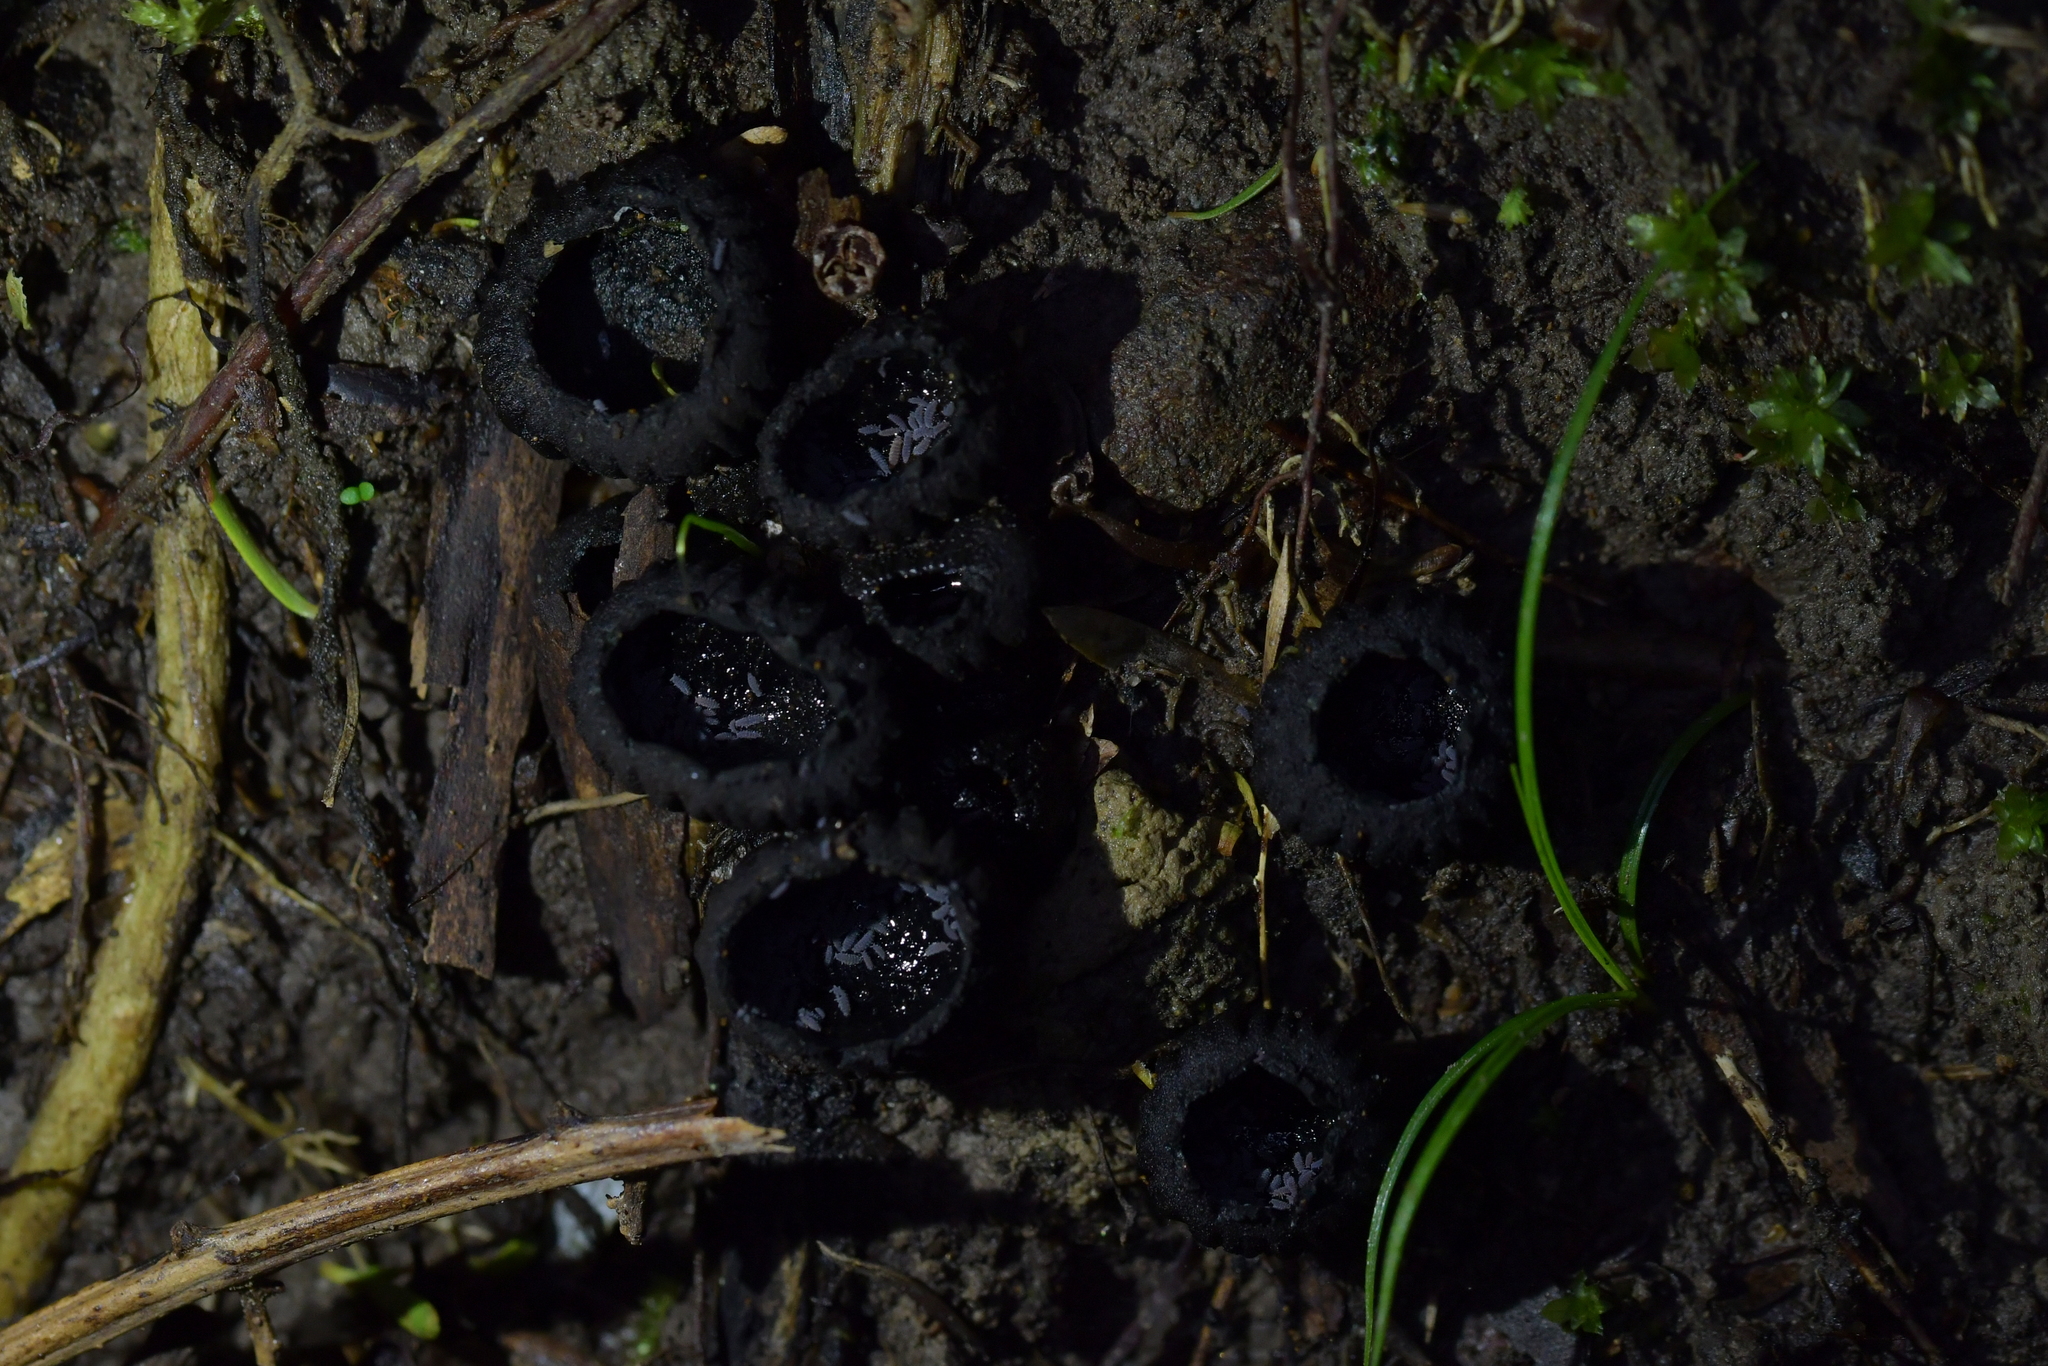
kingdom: Fungi
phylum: Ascomycota
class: Pezizomycetes
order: Pezizales
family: Sarcosomataceae
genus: Plectania
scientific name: Plectania rhytidia
